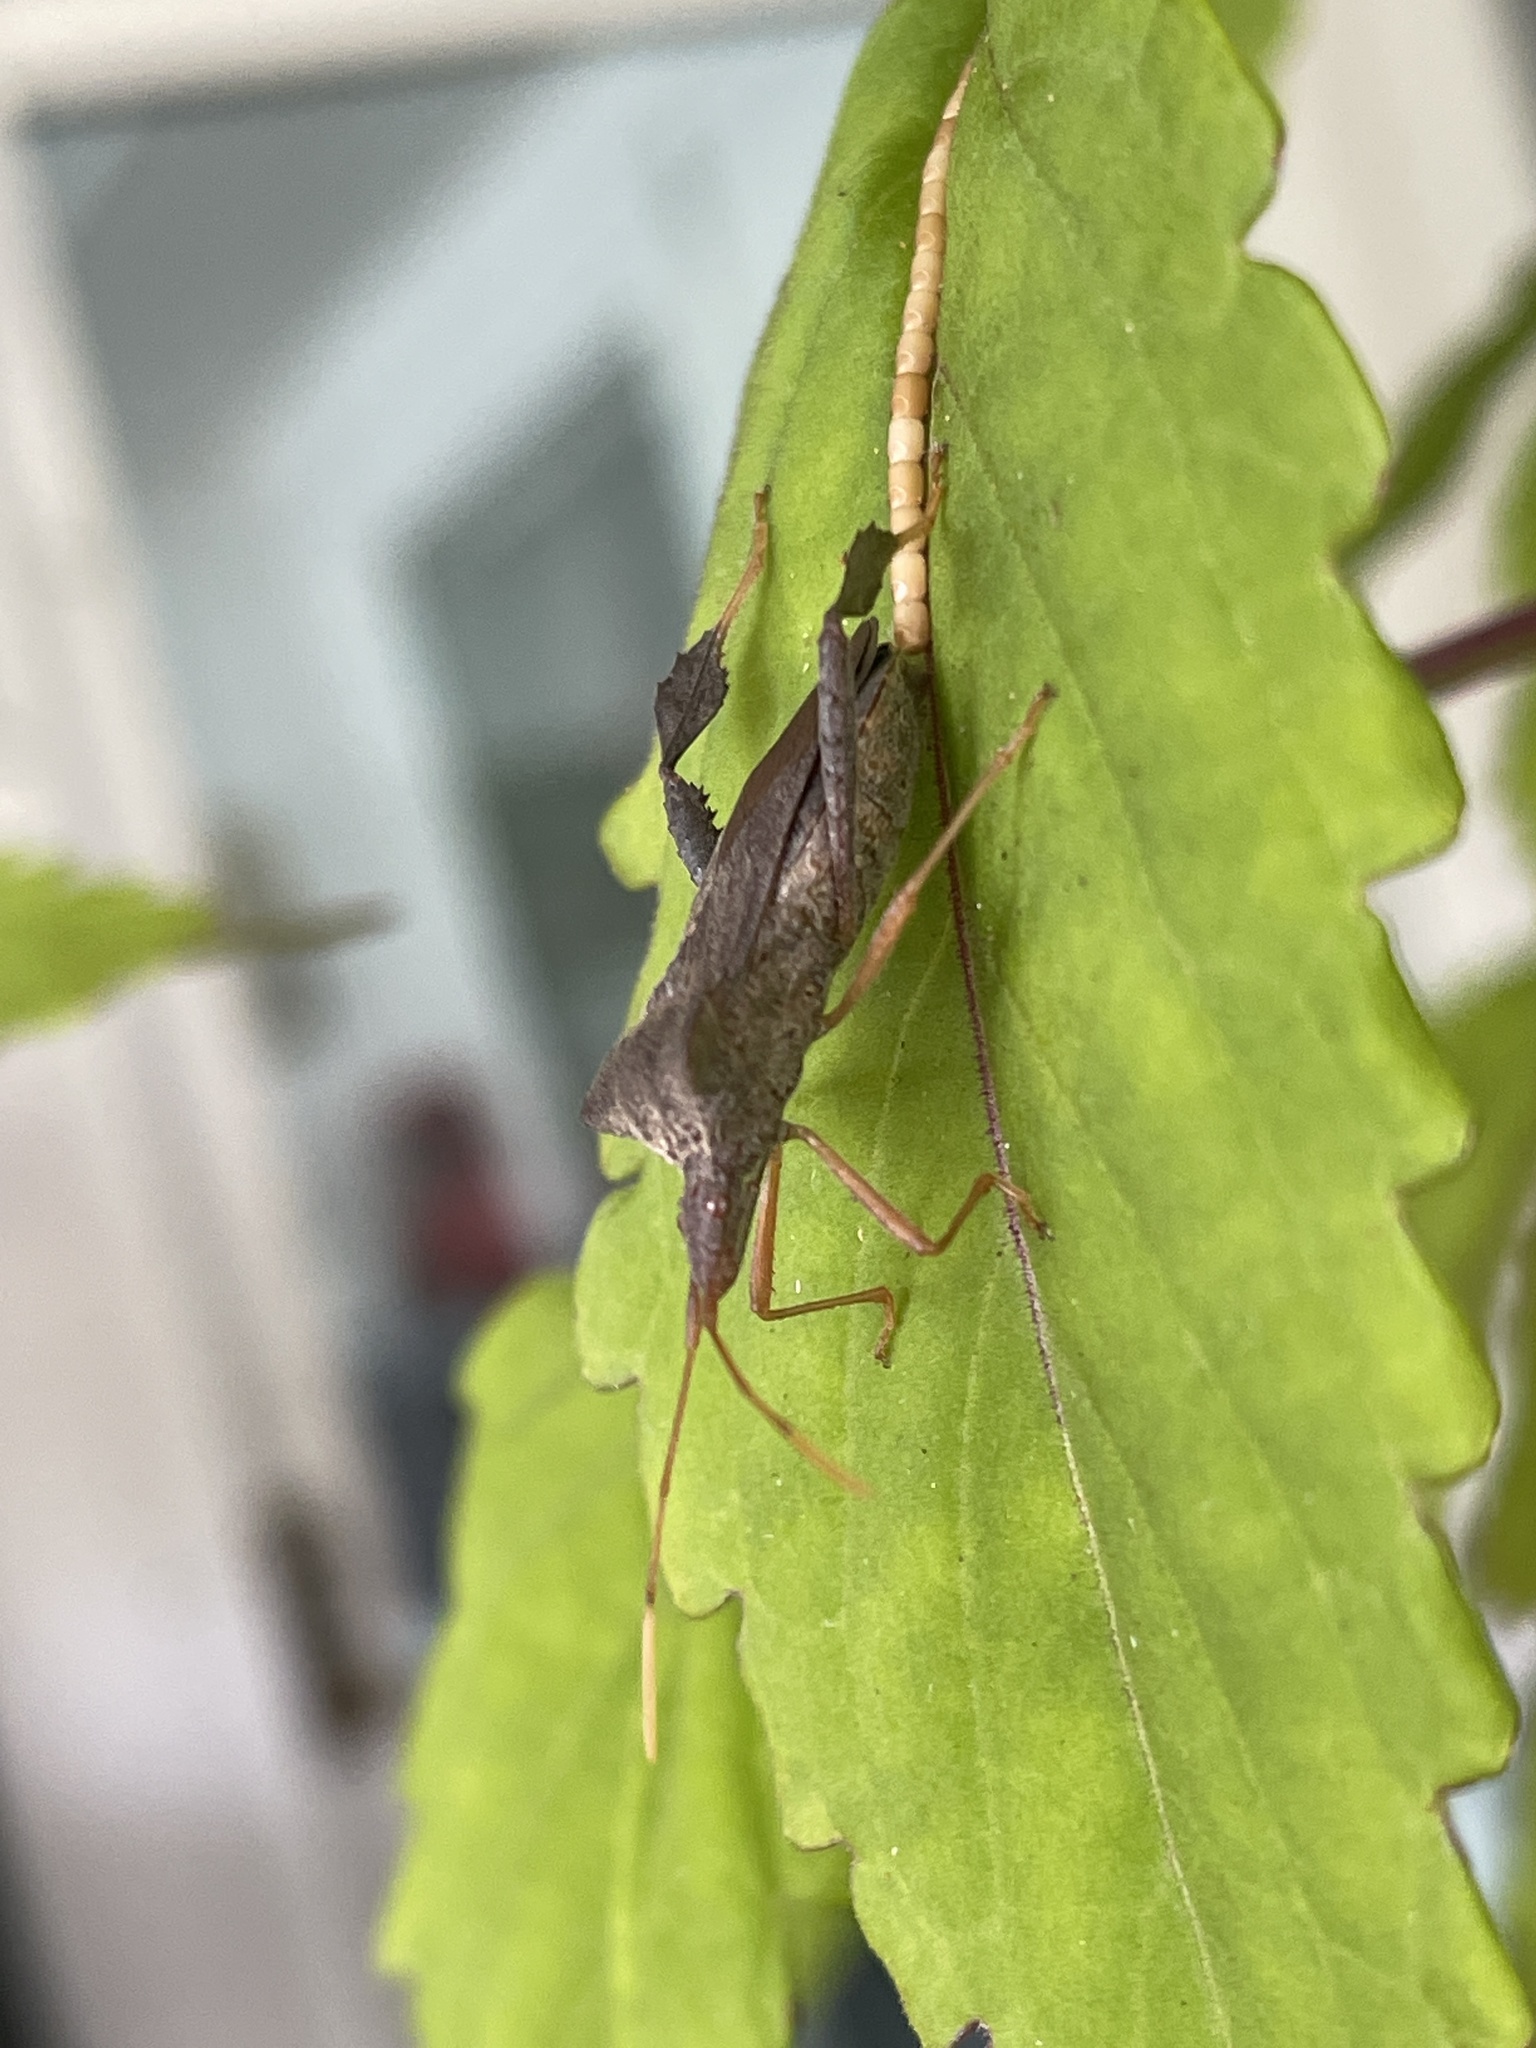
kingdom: Animalia
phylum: Arthropoda
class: Insecta
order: Hemiptera
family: Coreidae
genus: Leptoglossus
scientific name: Leptoglossus fulvicornis
